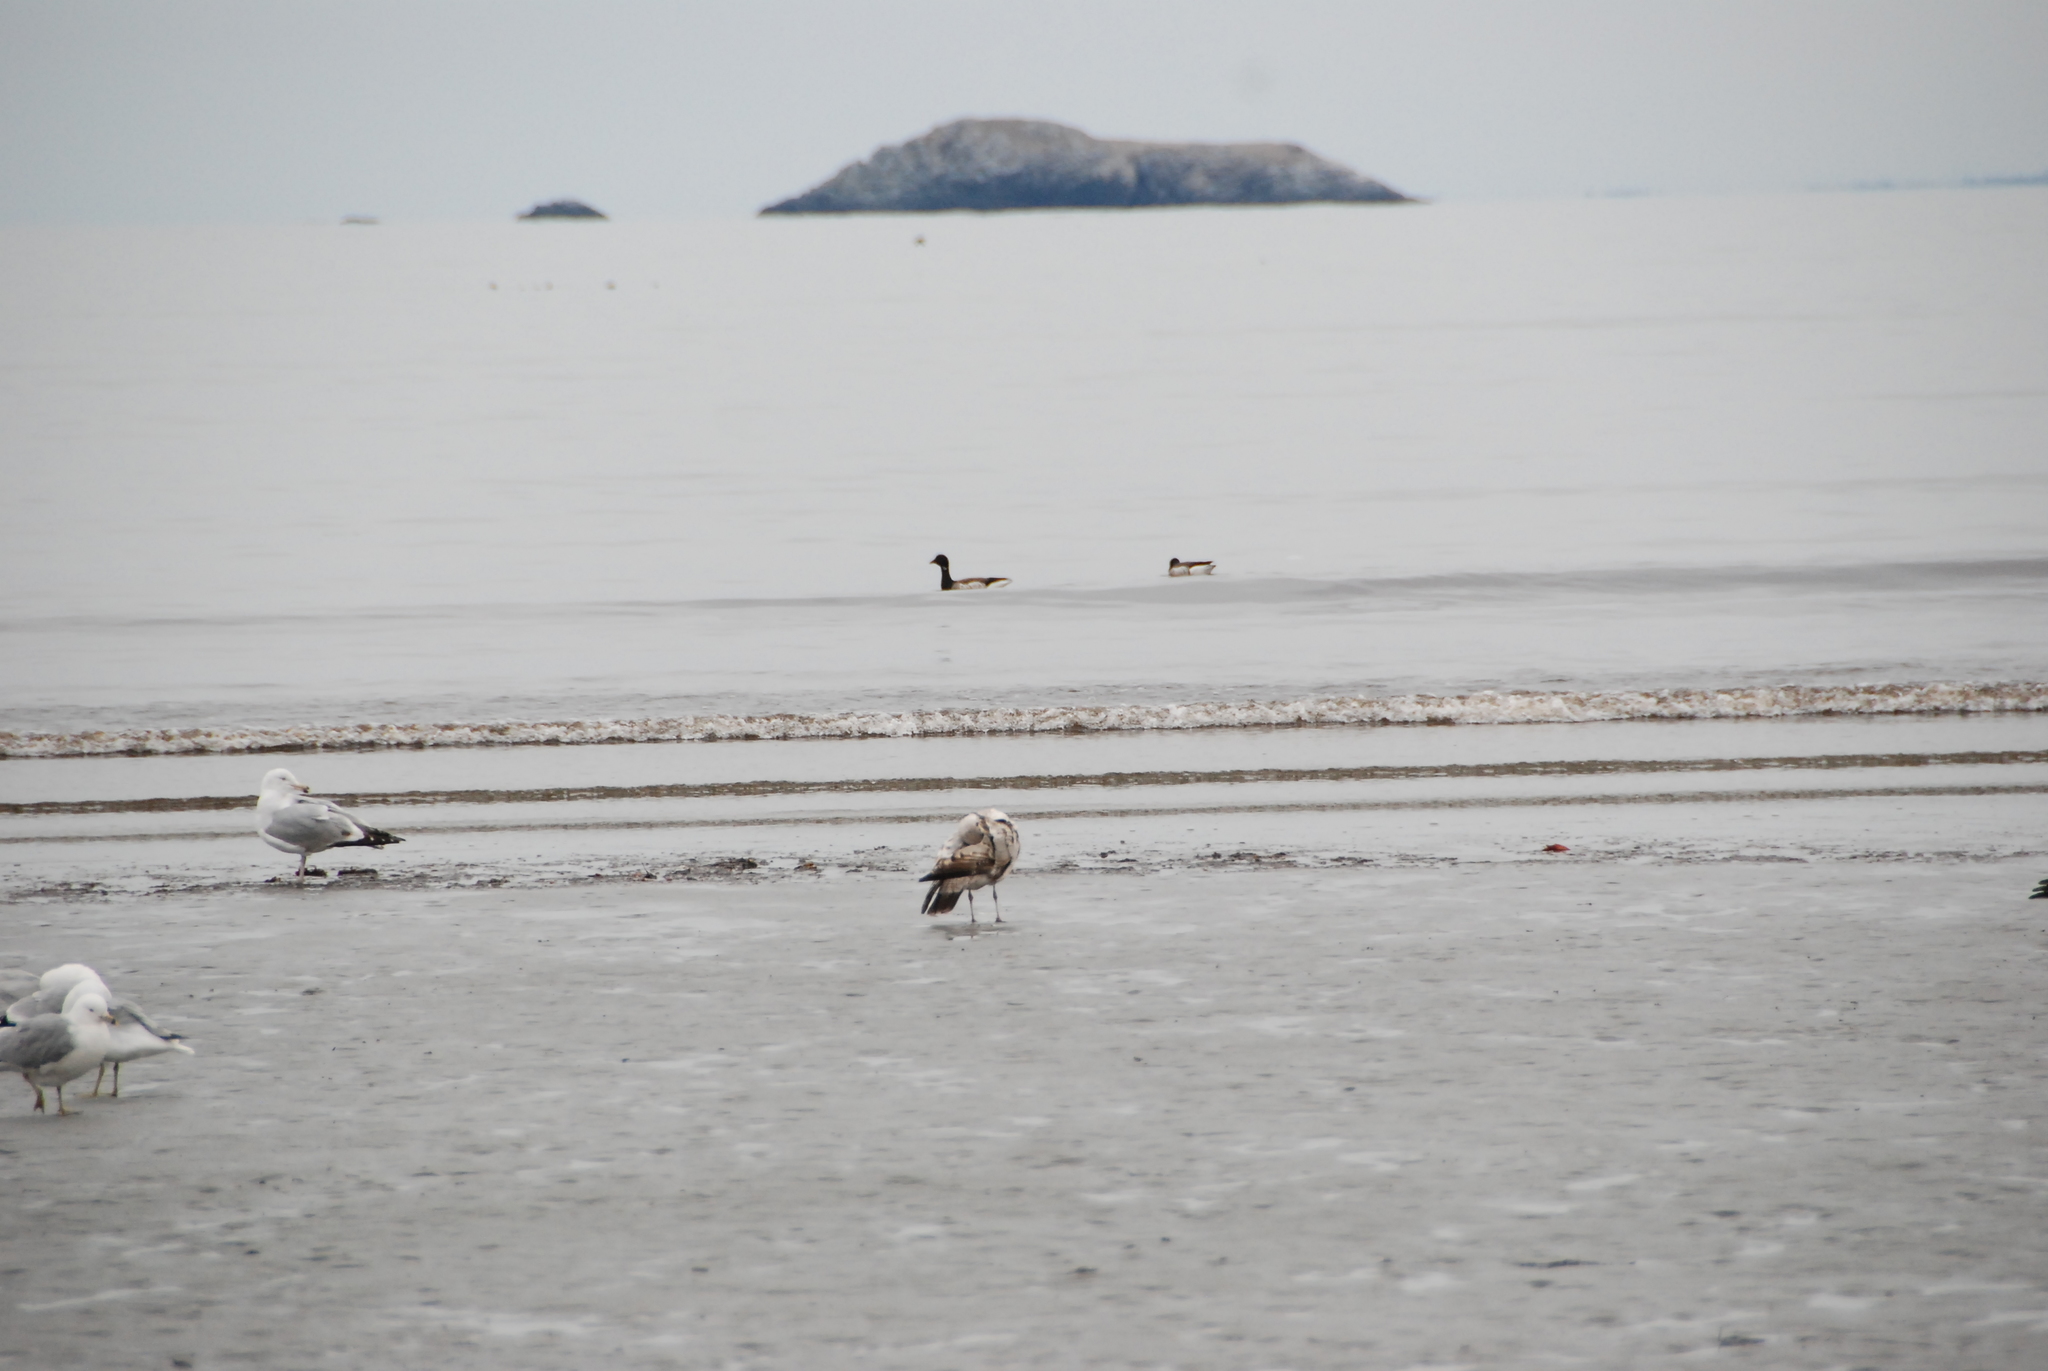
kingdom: Animalia
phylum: Chordata
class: Aves
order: Anseriformes
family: Anatidae
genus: Branta
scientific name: Branta bernicla
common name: Brant goose
